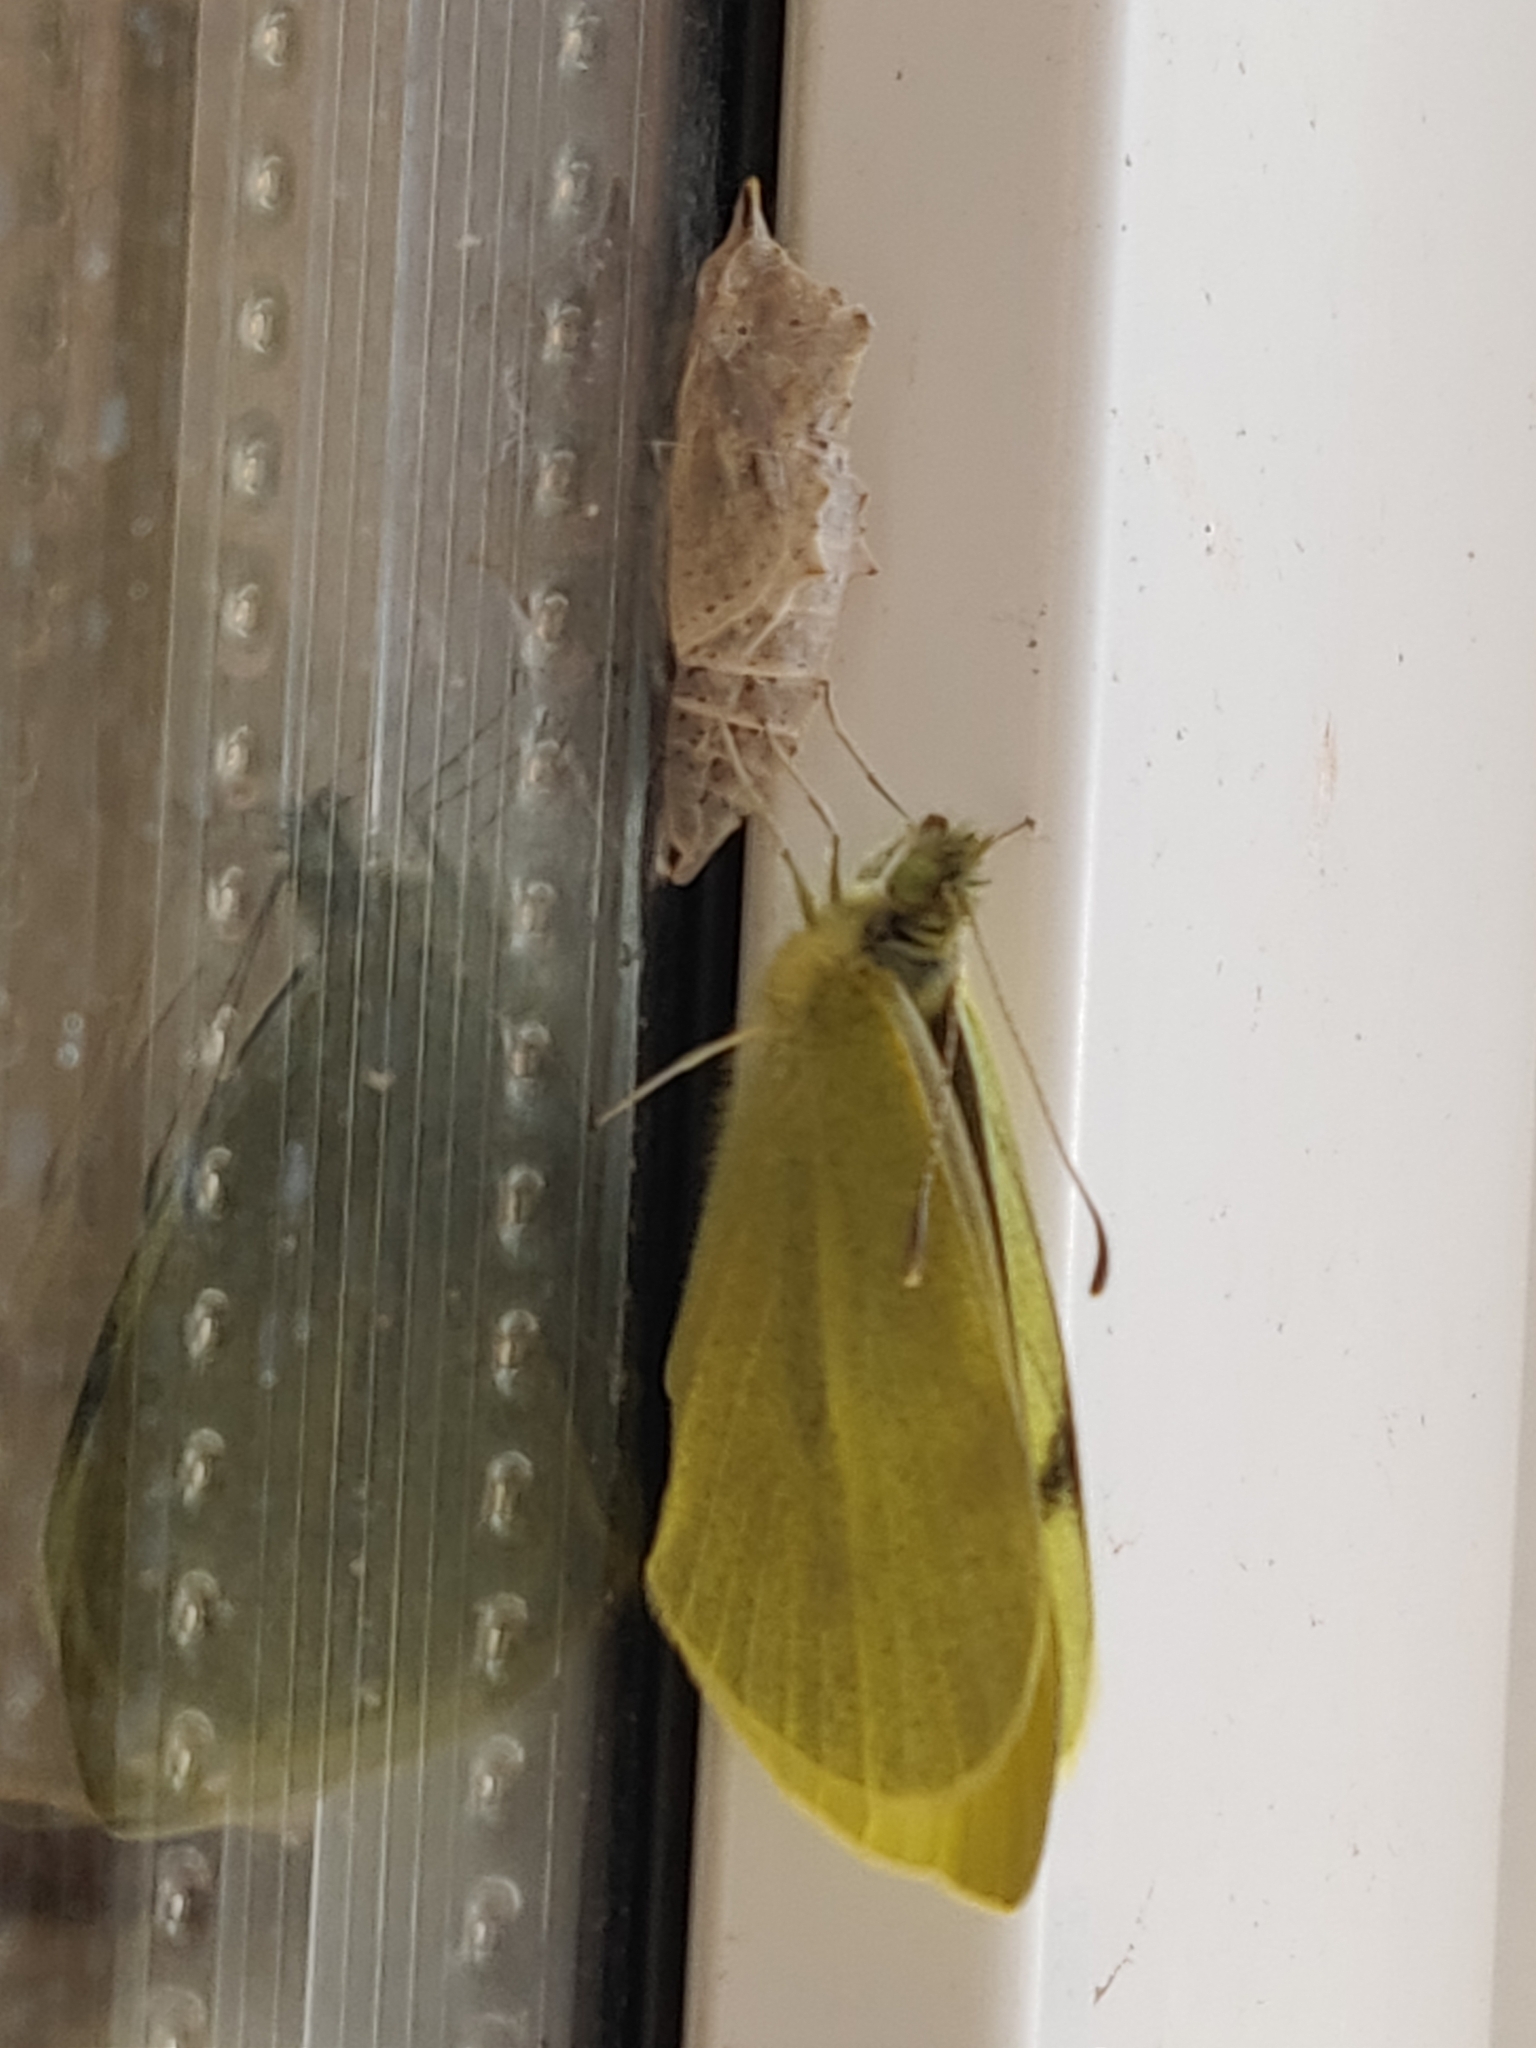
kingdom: Animalia
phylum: Arthropoda
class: Insecta
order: Lepidoptera
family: Pieridae
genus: Pieris
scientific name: Pieris rapae
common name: Small white
